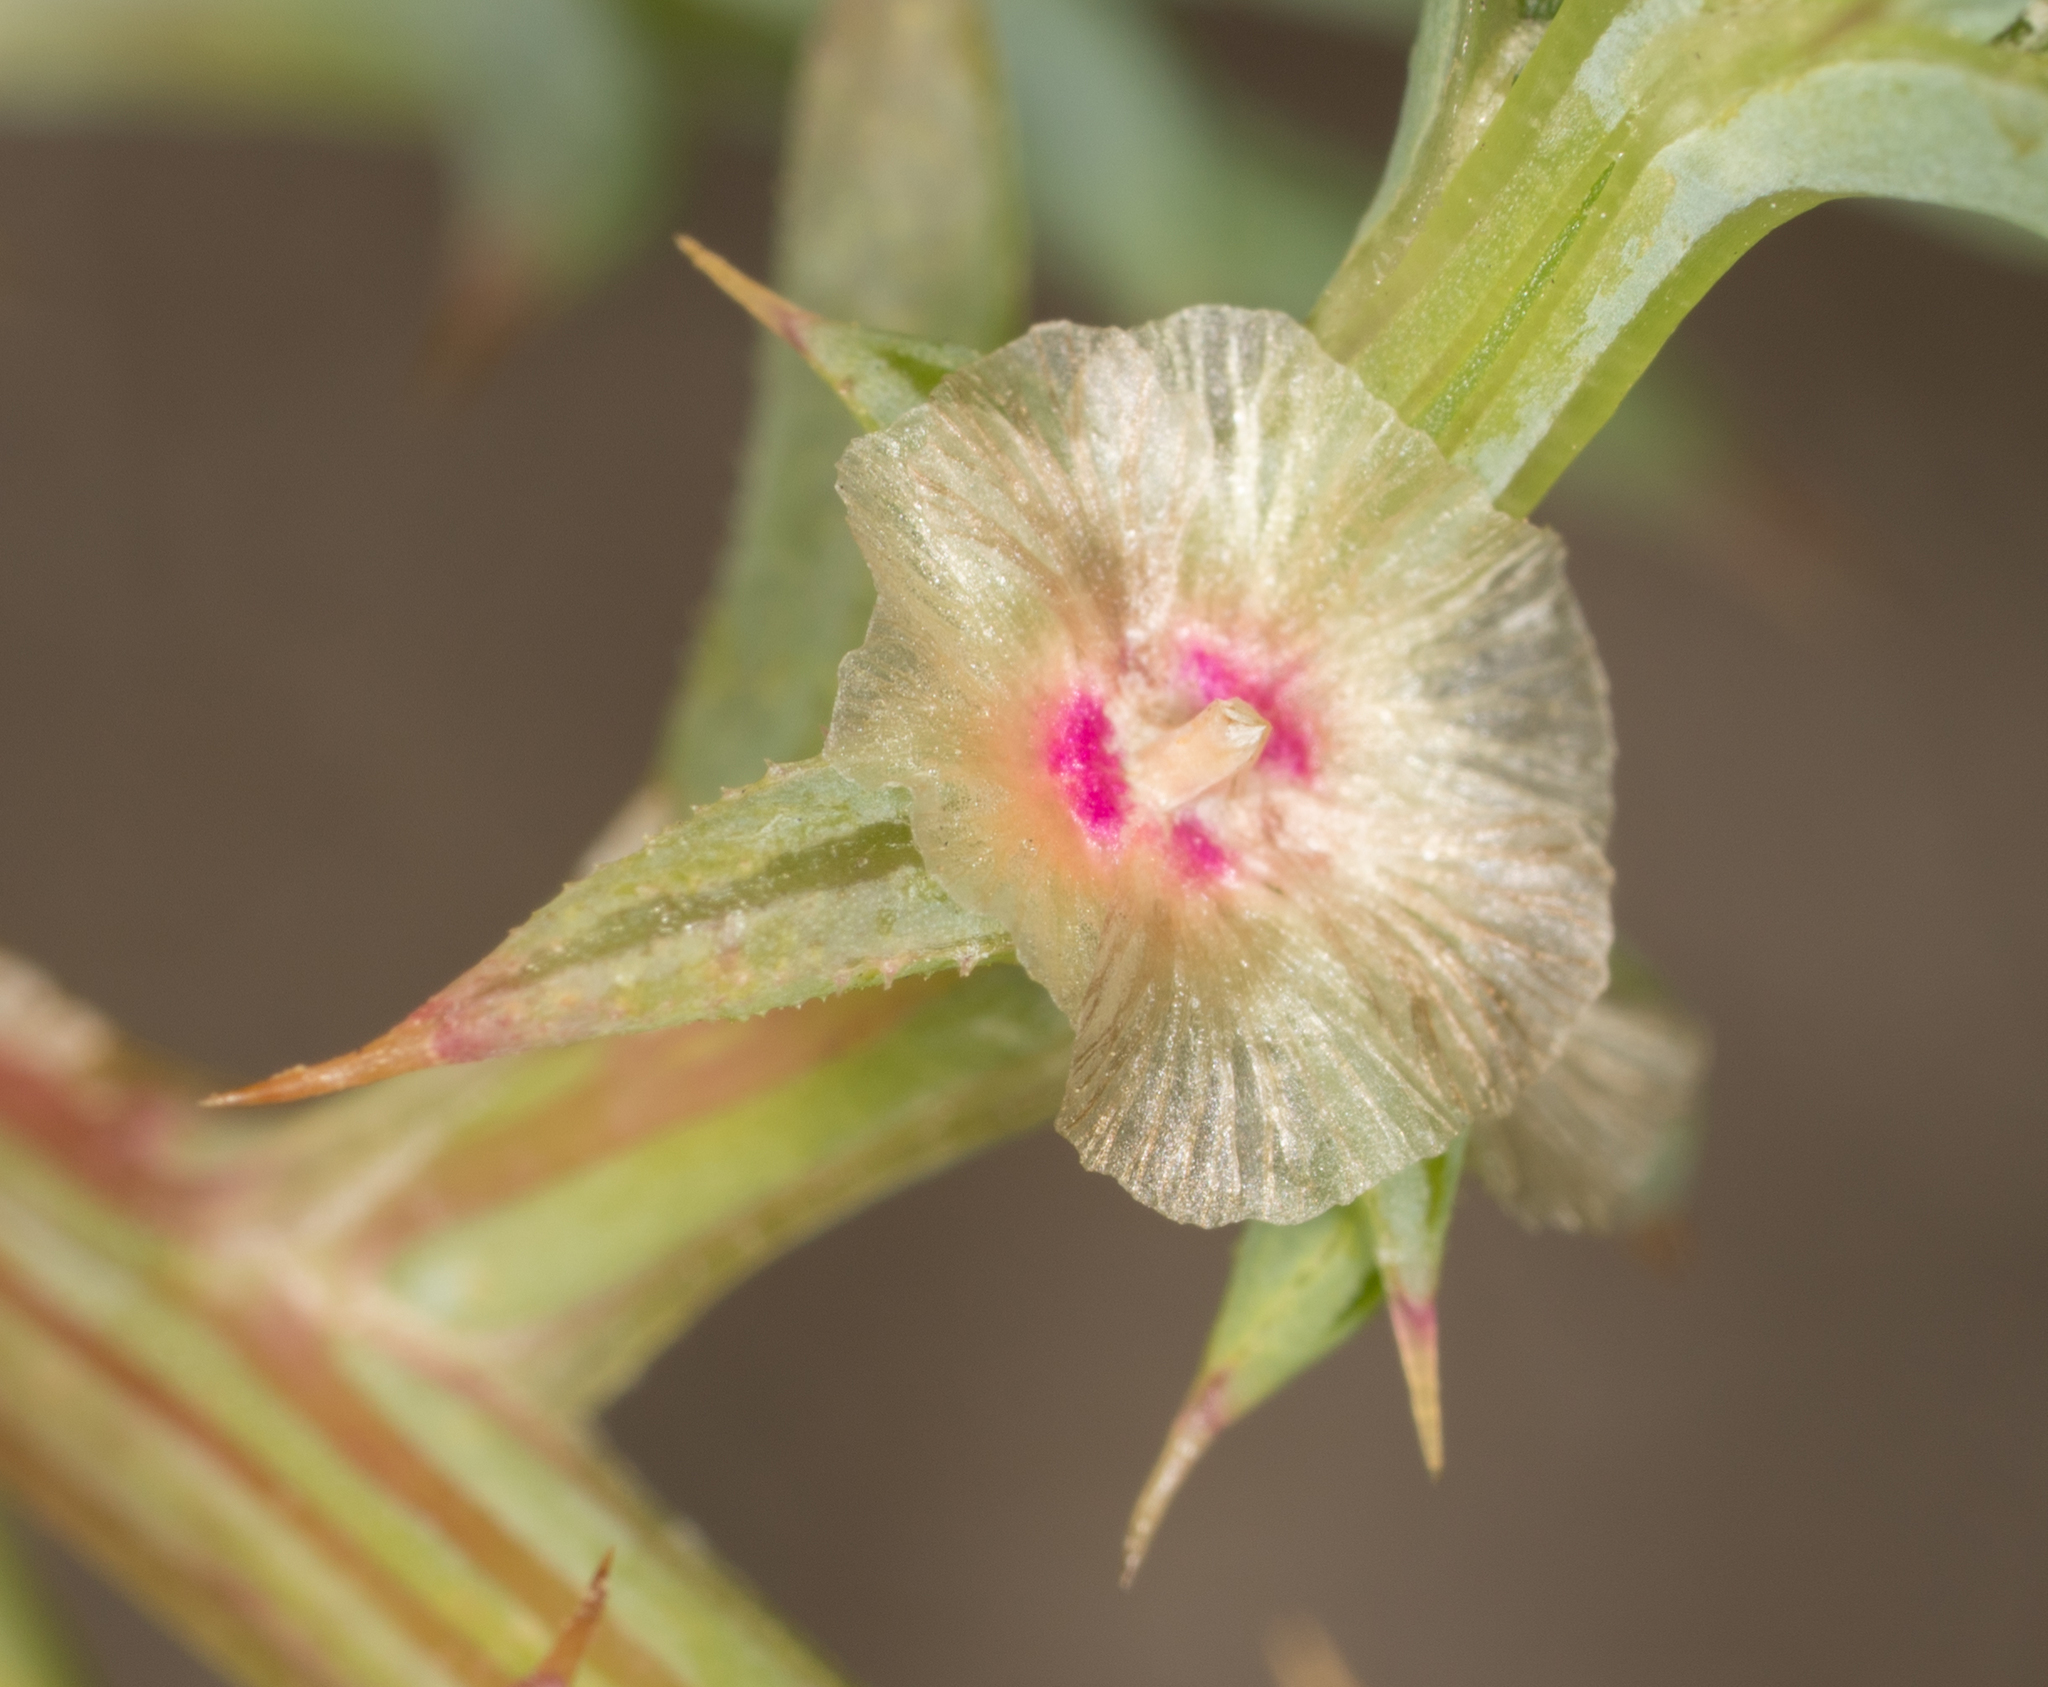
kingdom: Plantae
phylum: Tracheophyta
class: Magnoliopsida
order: Caryophyllales
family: Amaranthaceae
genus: Salsola
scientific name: Salsola australis
